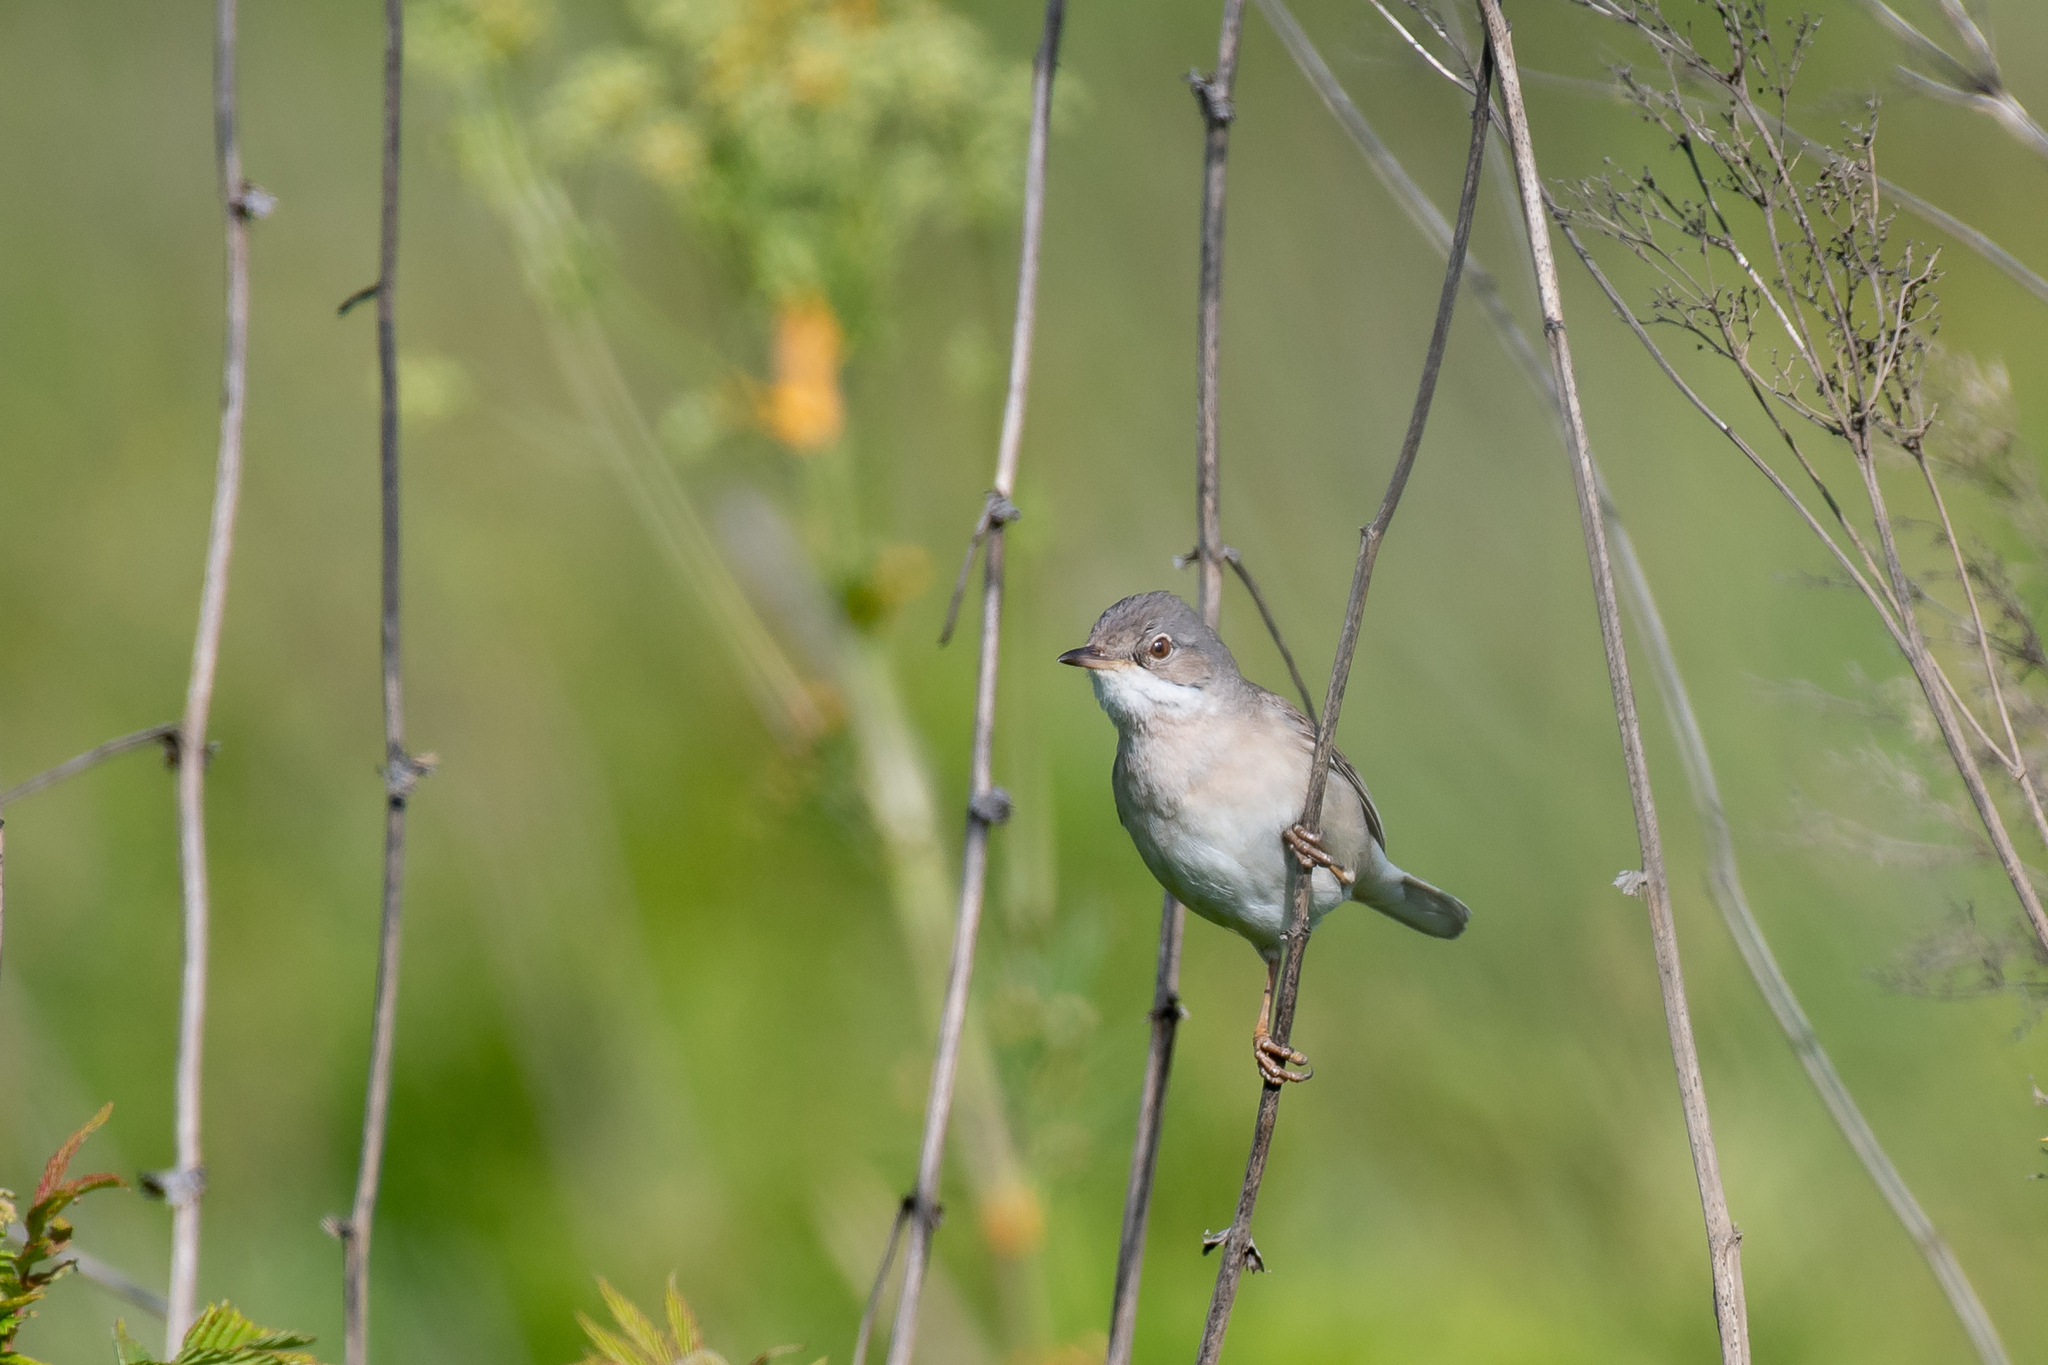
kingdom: Animalia
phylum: Chordata
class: Aves
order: Passeriformes
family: Sylviidae
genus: Sylvia
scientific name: Sylvia communis
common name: Common whitethroat
